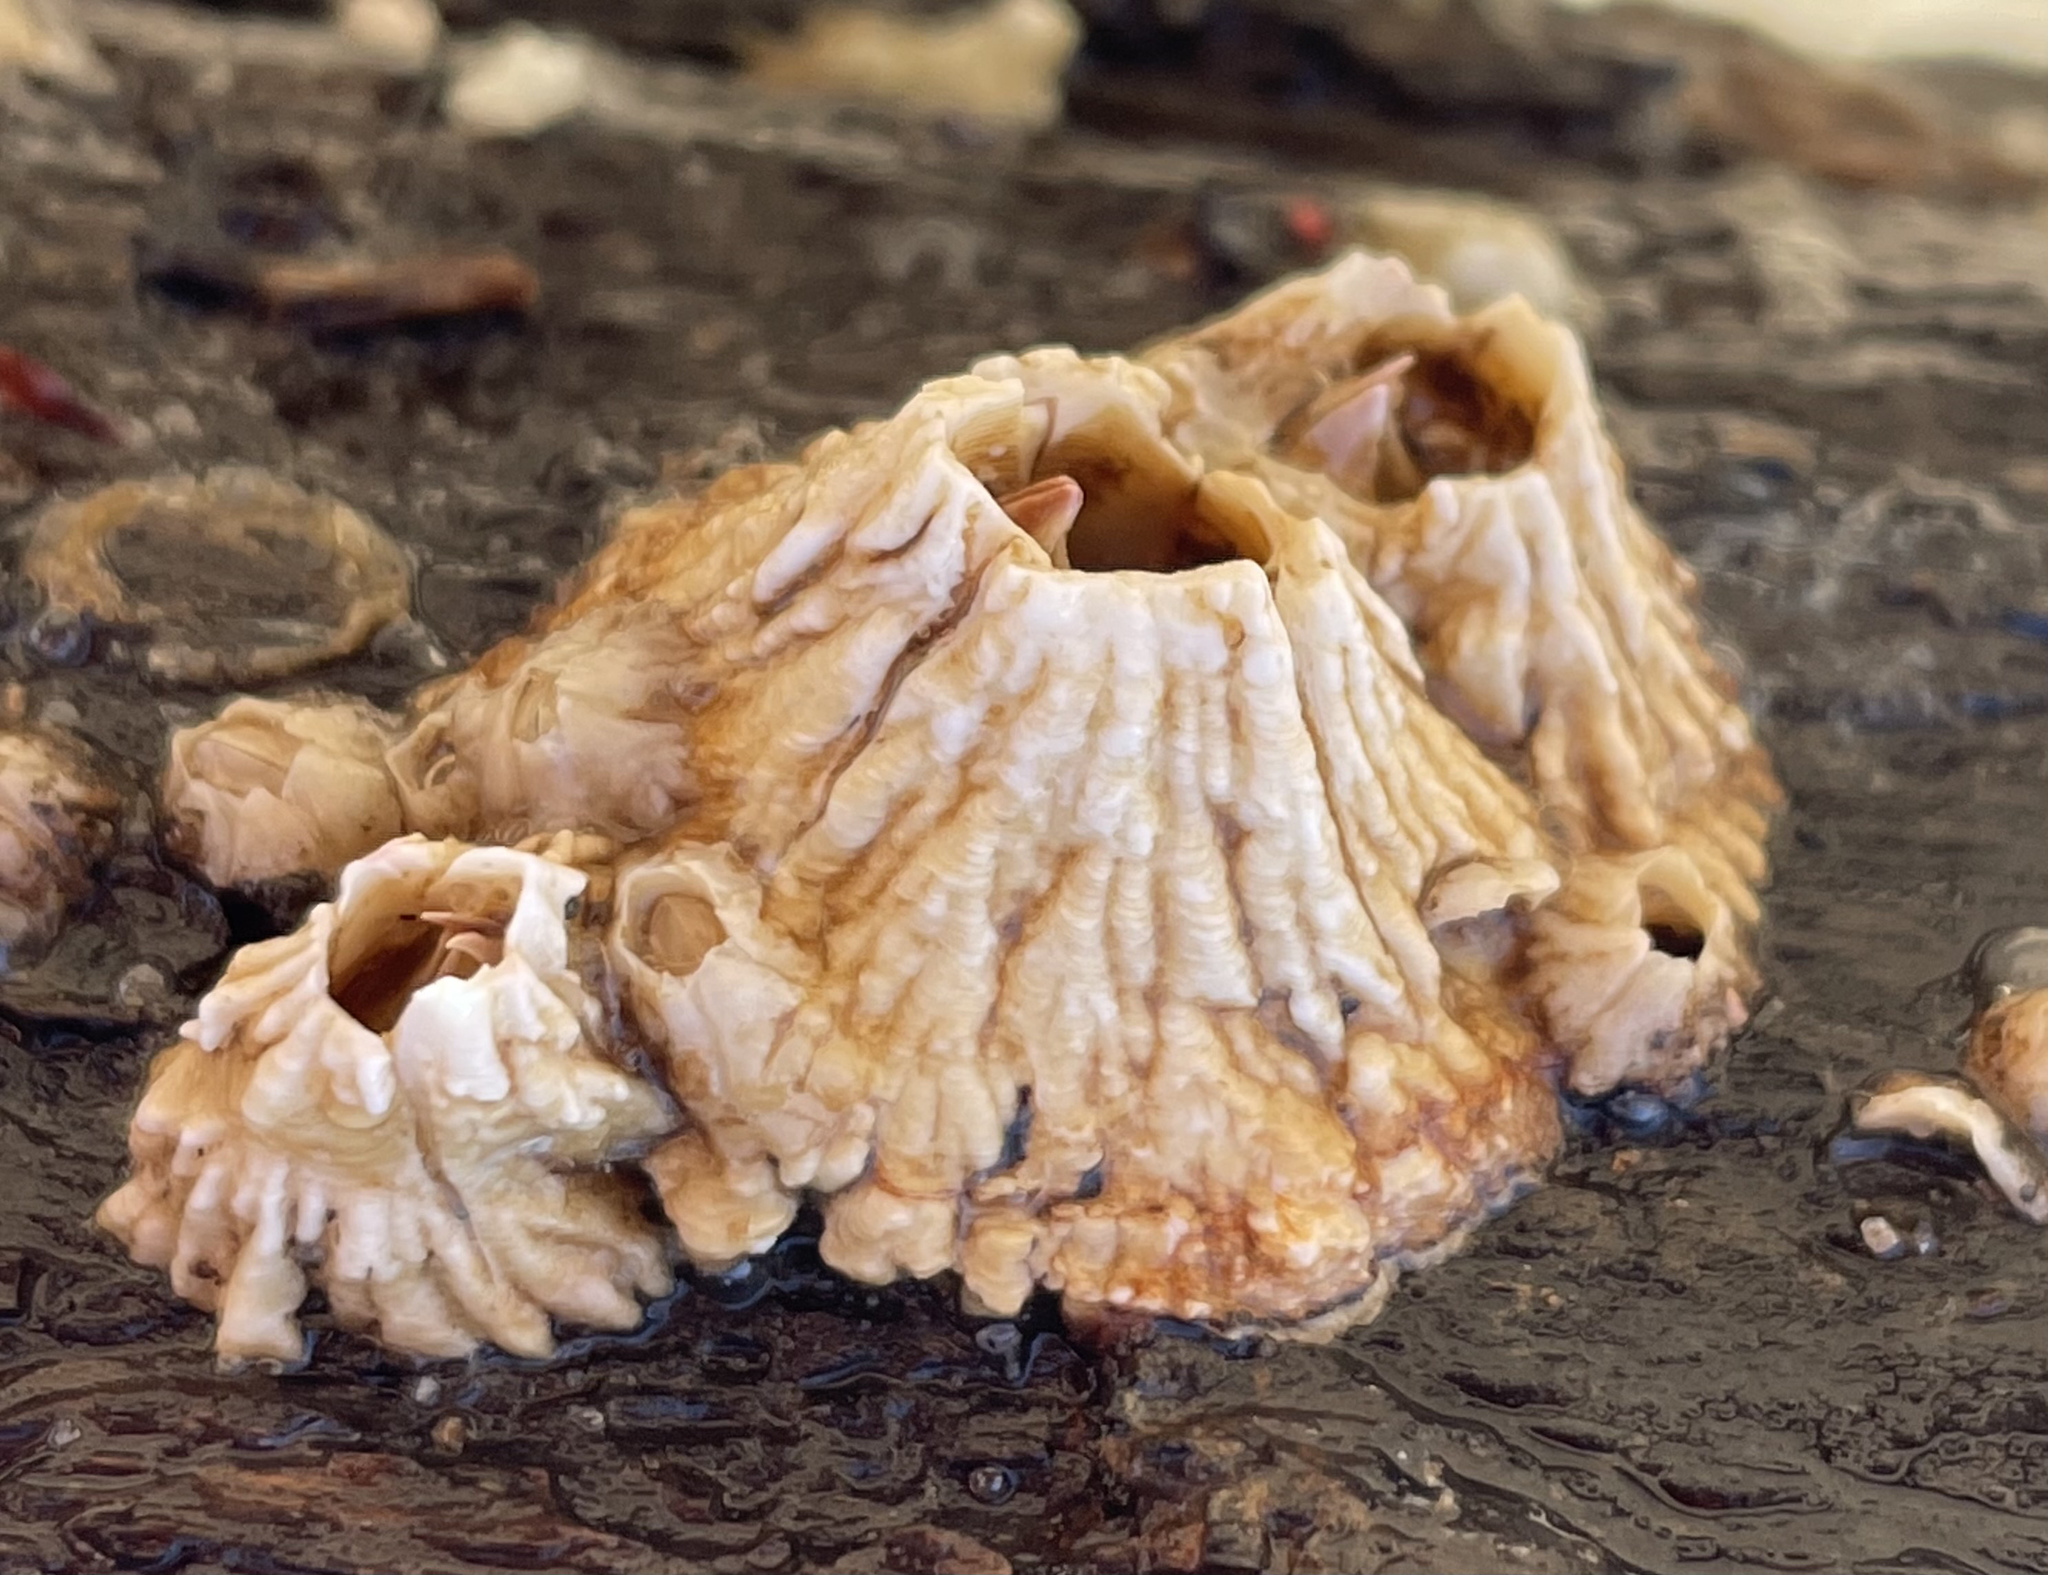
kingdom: Animalia
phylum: Arthropoda
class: Maxillopoda
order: Sessilia
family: Archaeobalanidae
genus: Semibalanus
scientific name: Semibalanus cariosus
